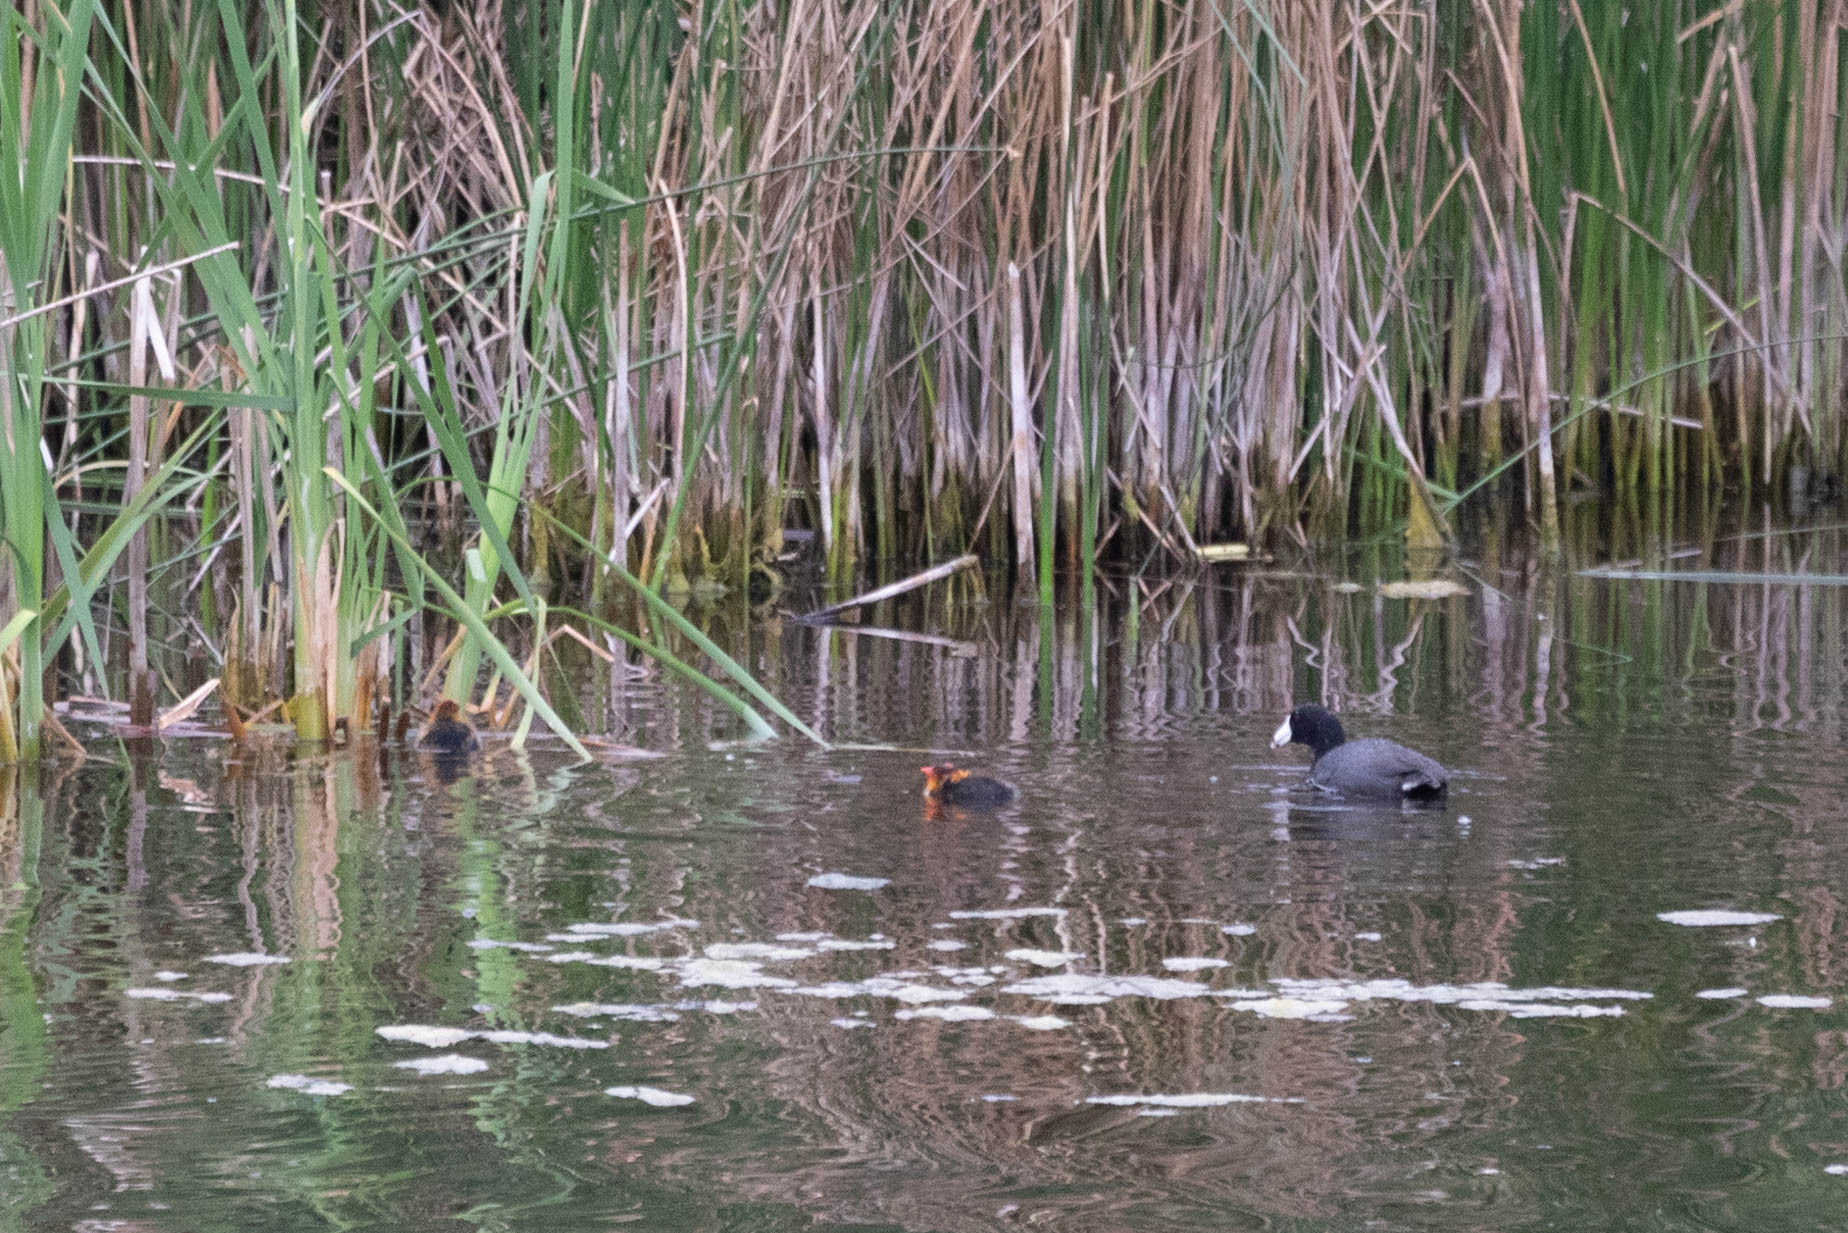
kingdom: Animalia
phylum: Chordata
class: Aves
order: Gruiformes
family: Rallidae
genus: Fulica
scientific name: Fulica americana
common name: American coot
